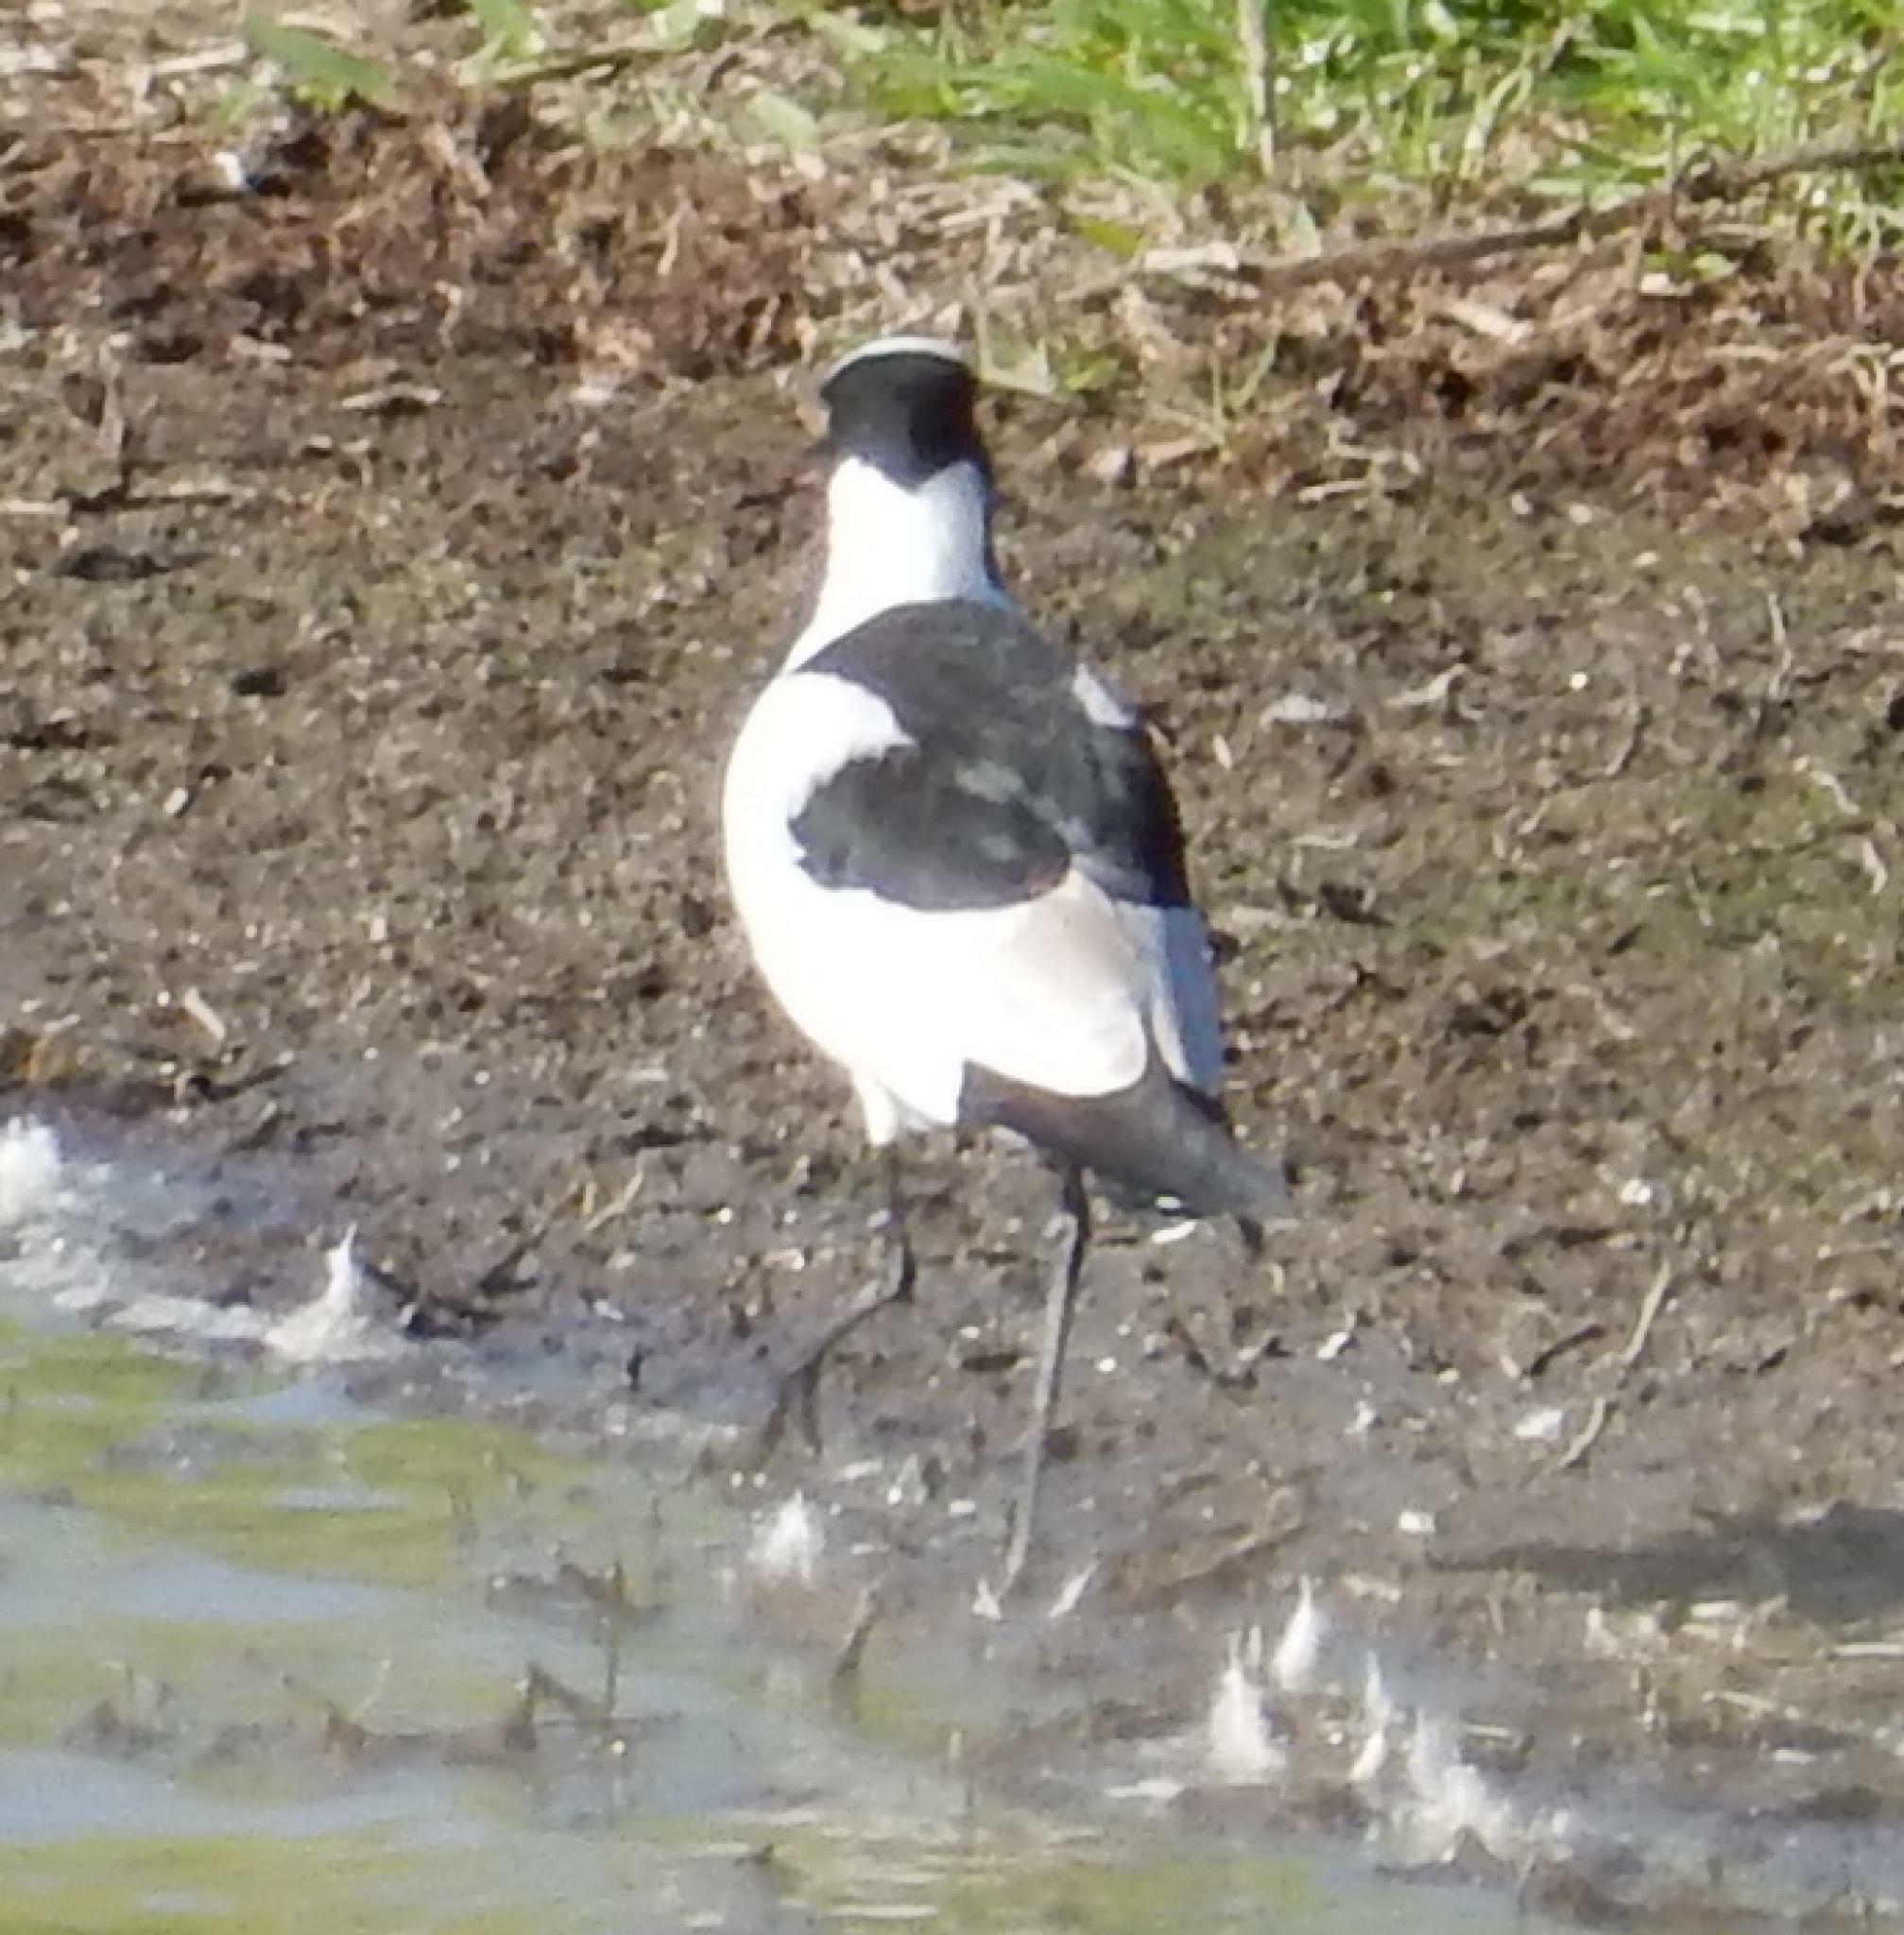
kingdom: Animalia
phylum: Chordata
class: Aves
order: Charadriiformes
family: Charadriidae
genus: Vanellus
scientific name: Vanellus armatus
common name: Blacksmith lapwing
